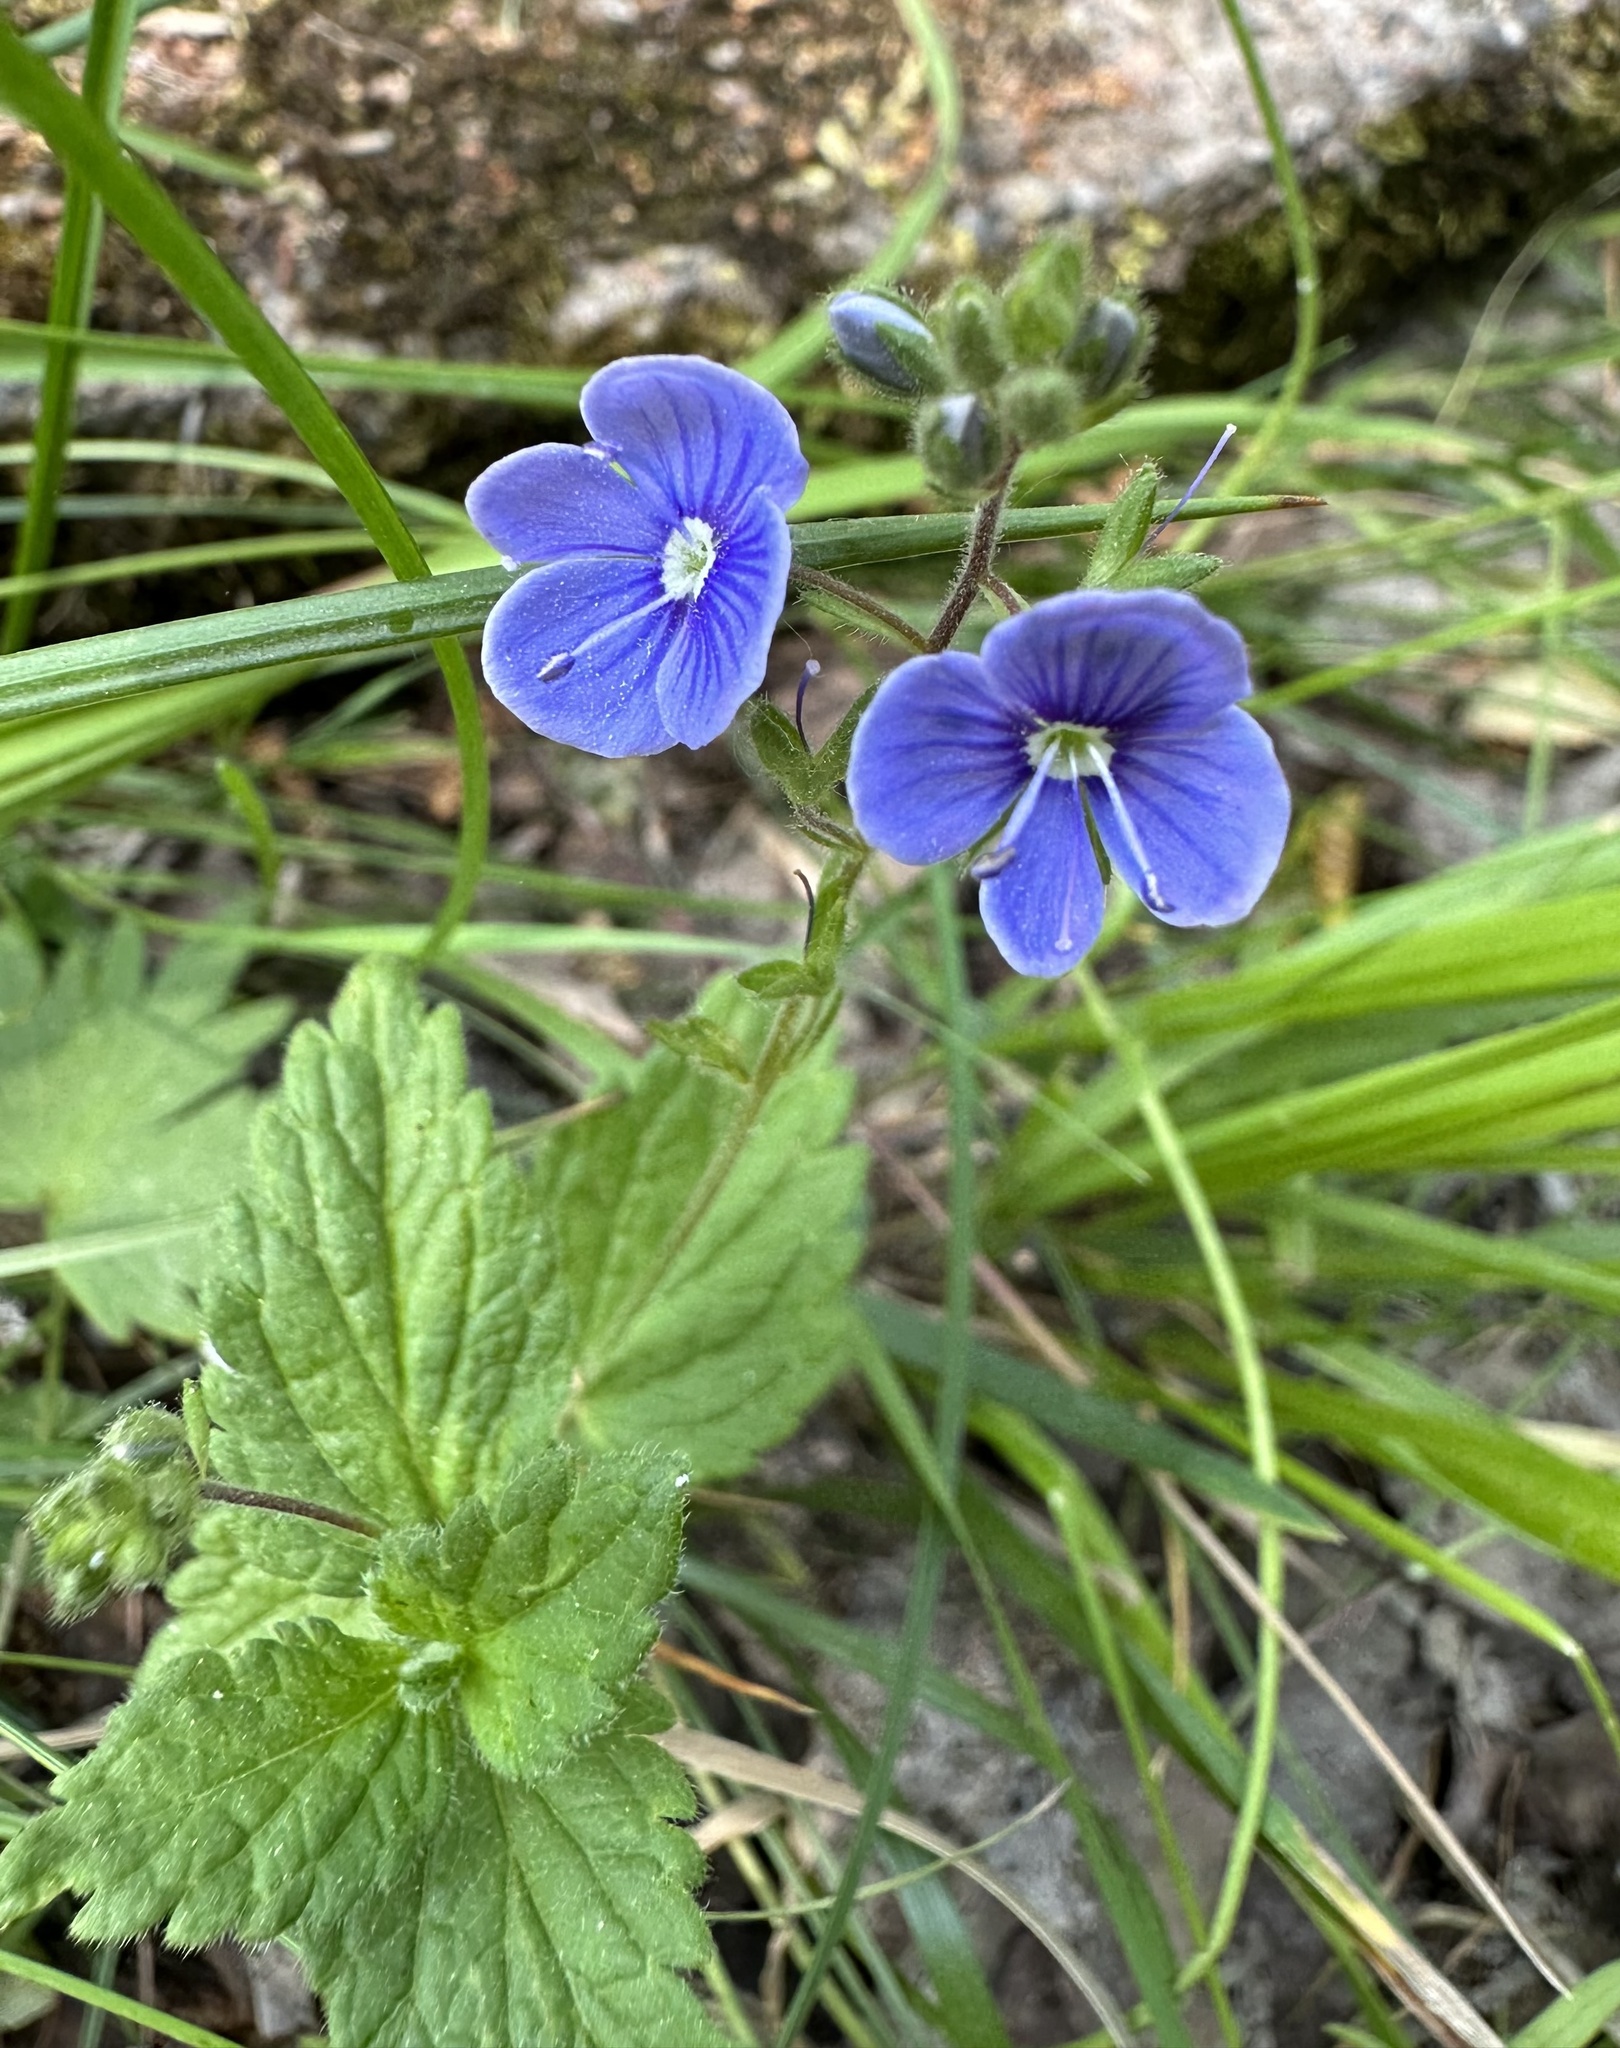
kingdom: Plantae
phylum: Tracheophyta
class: Magnoliopsida
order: Lamiales
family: Plantaginaceae
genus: Veronica
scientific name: Veronica chamaedrys
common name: Germander speedwell
